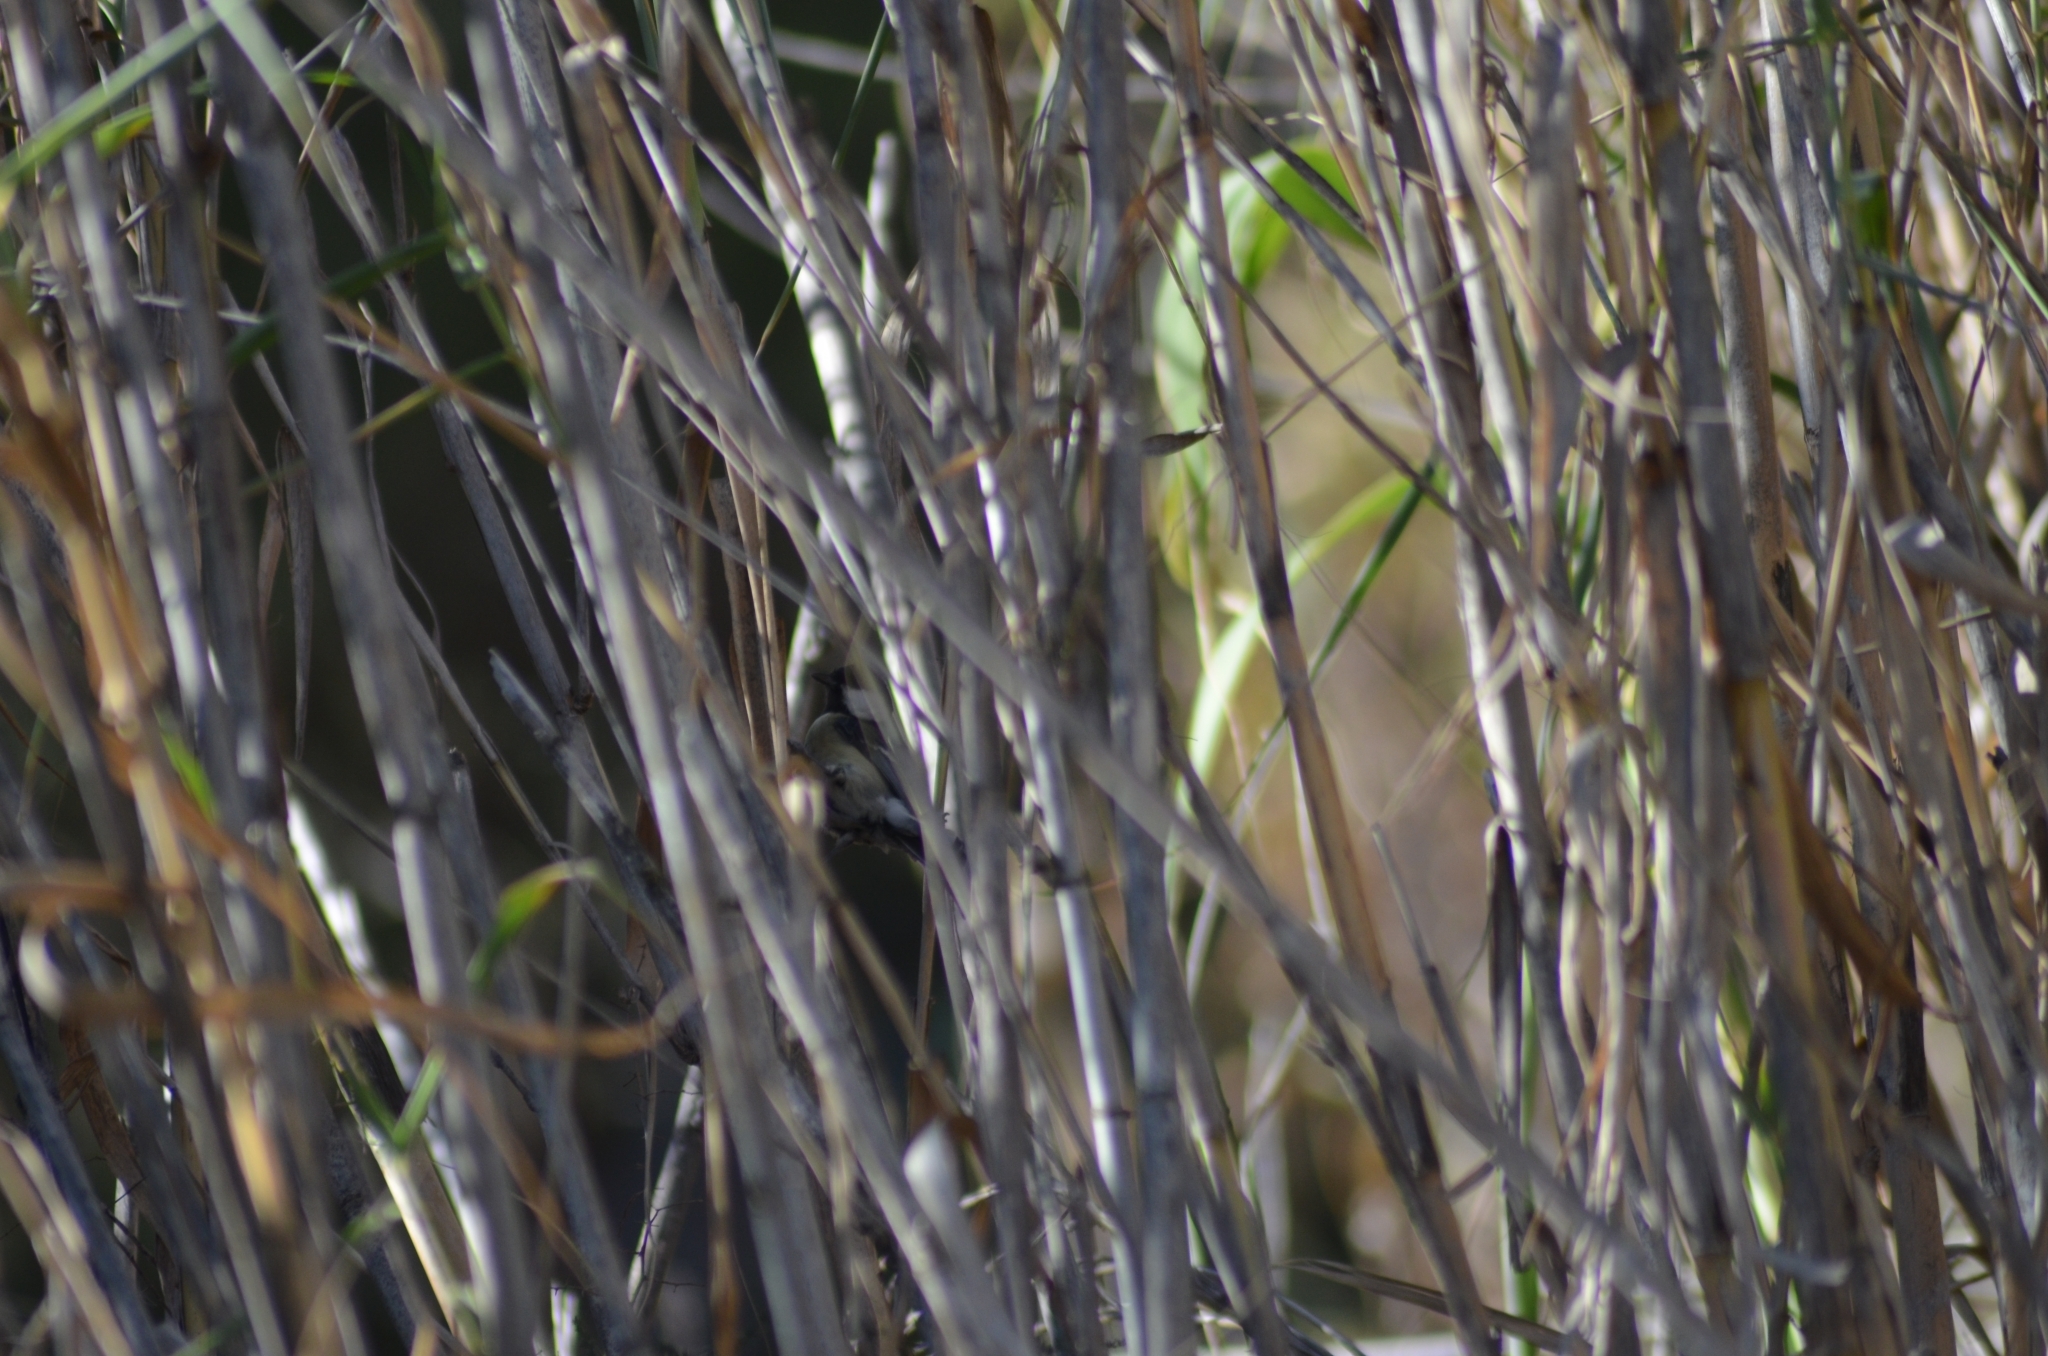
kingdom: Animalia
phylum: Chordata
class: Aves
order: Passeriformes
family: Paridae
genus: Parus
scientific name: Parus major
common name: Great tit
